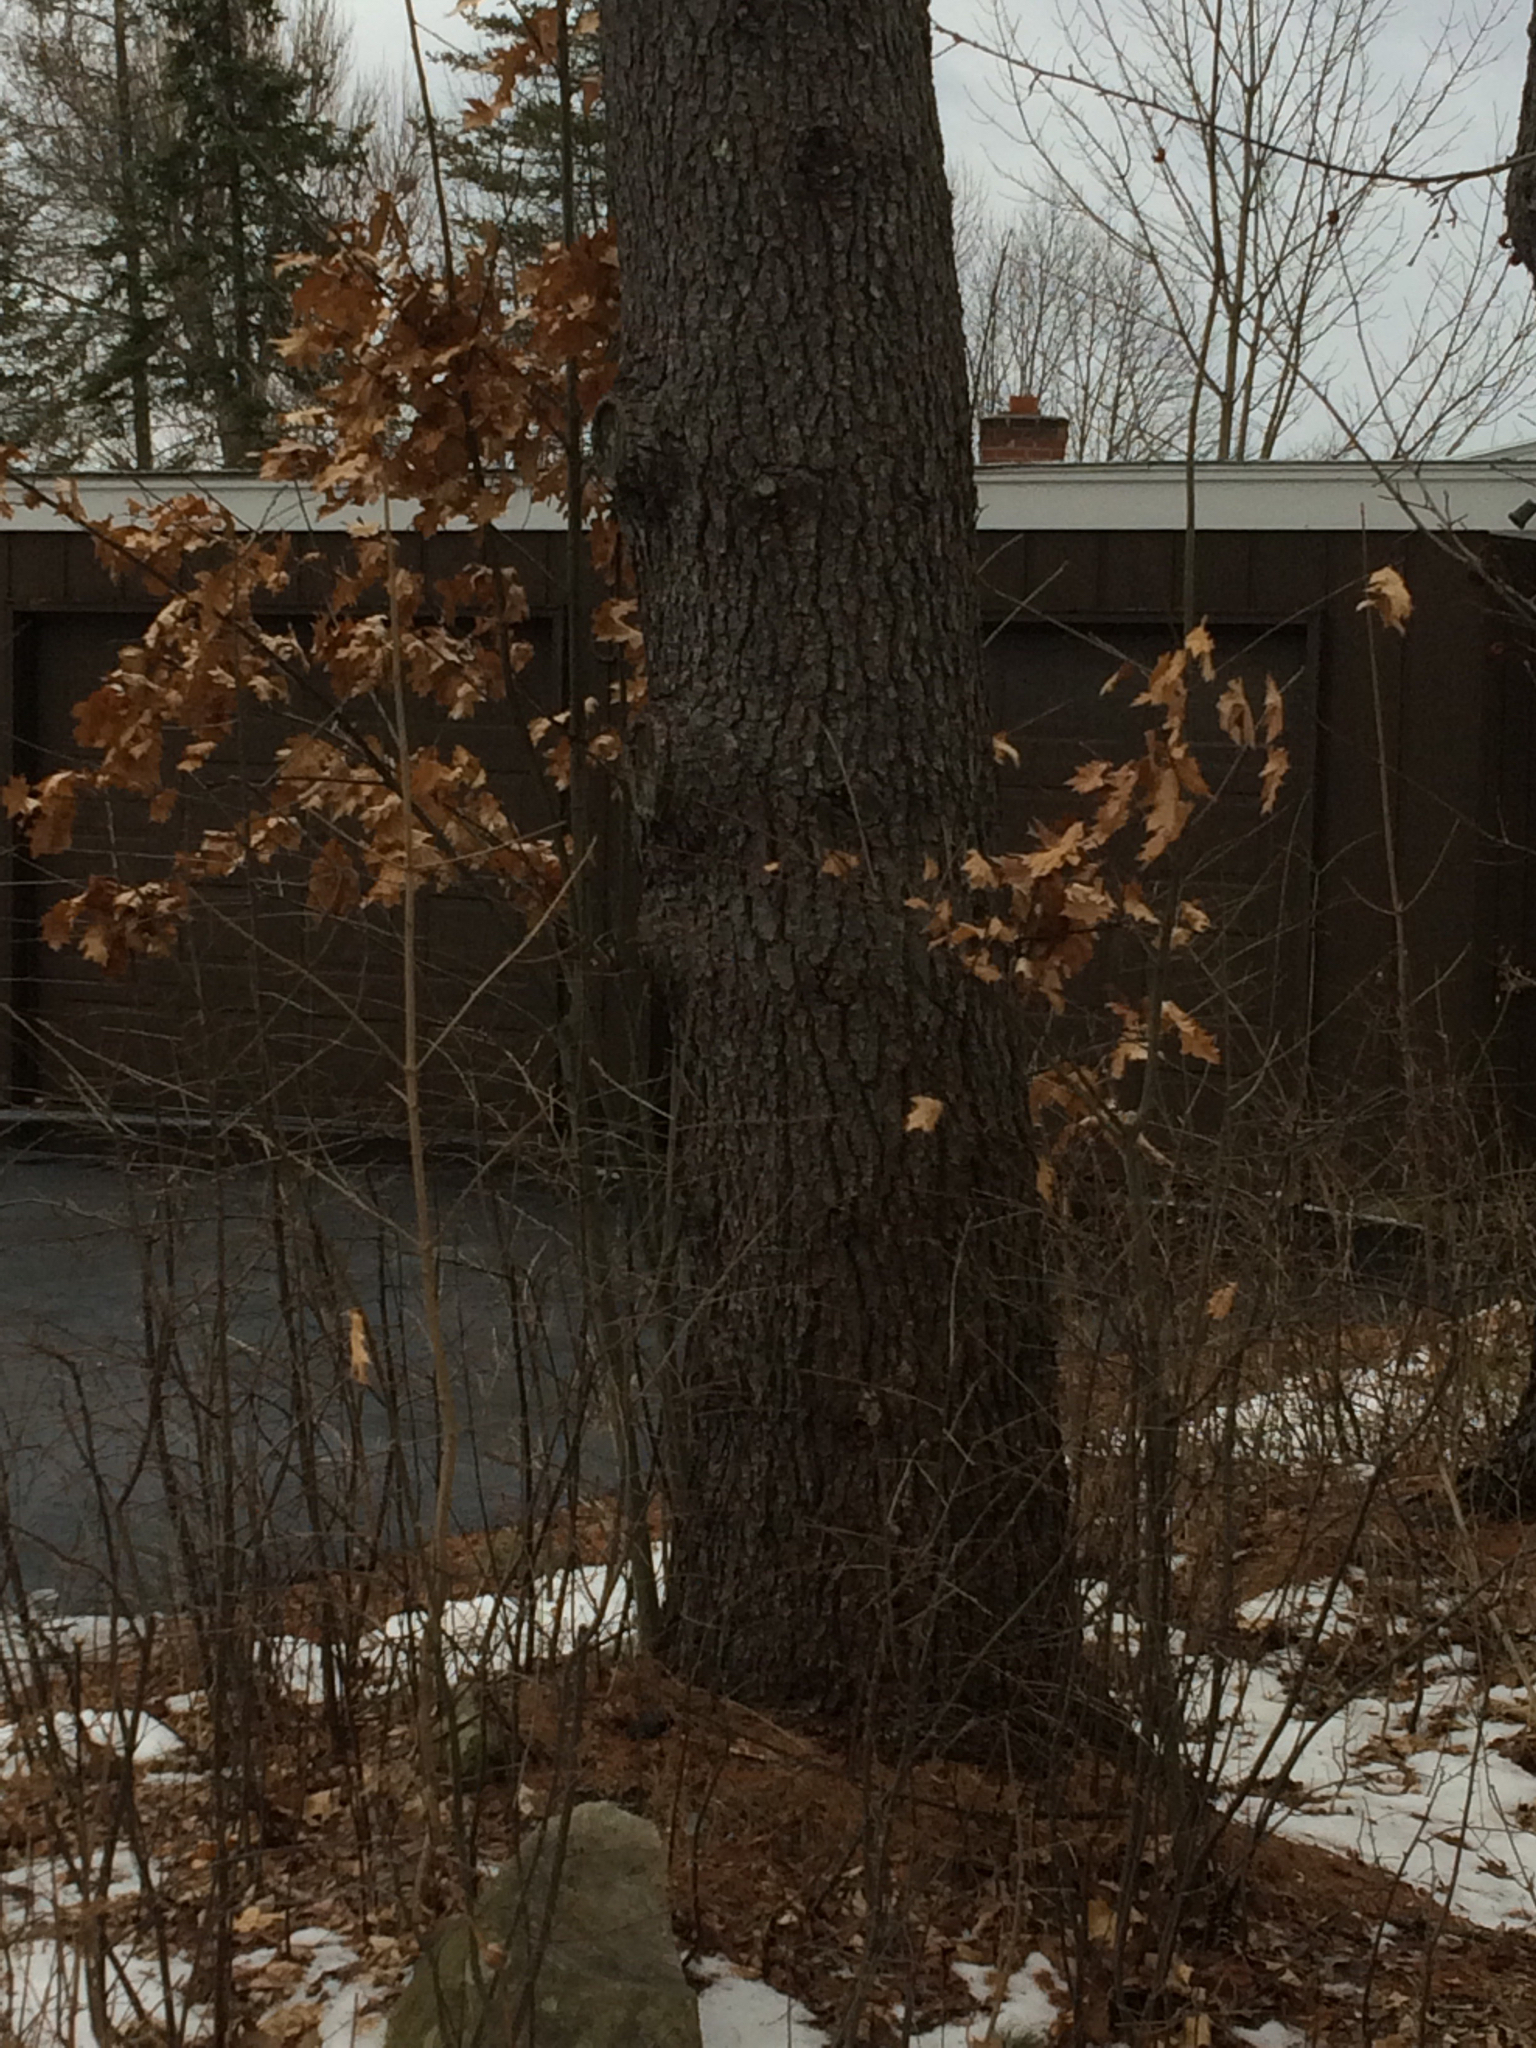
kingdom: Plantae
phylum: Tracheophyta
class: Magnoliopsida
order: Fagales
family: Fagaceae
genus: Quercus
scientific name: Quercus rubra
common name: Red oak
